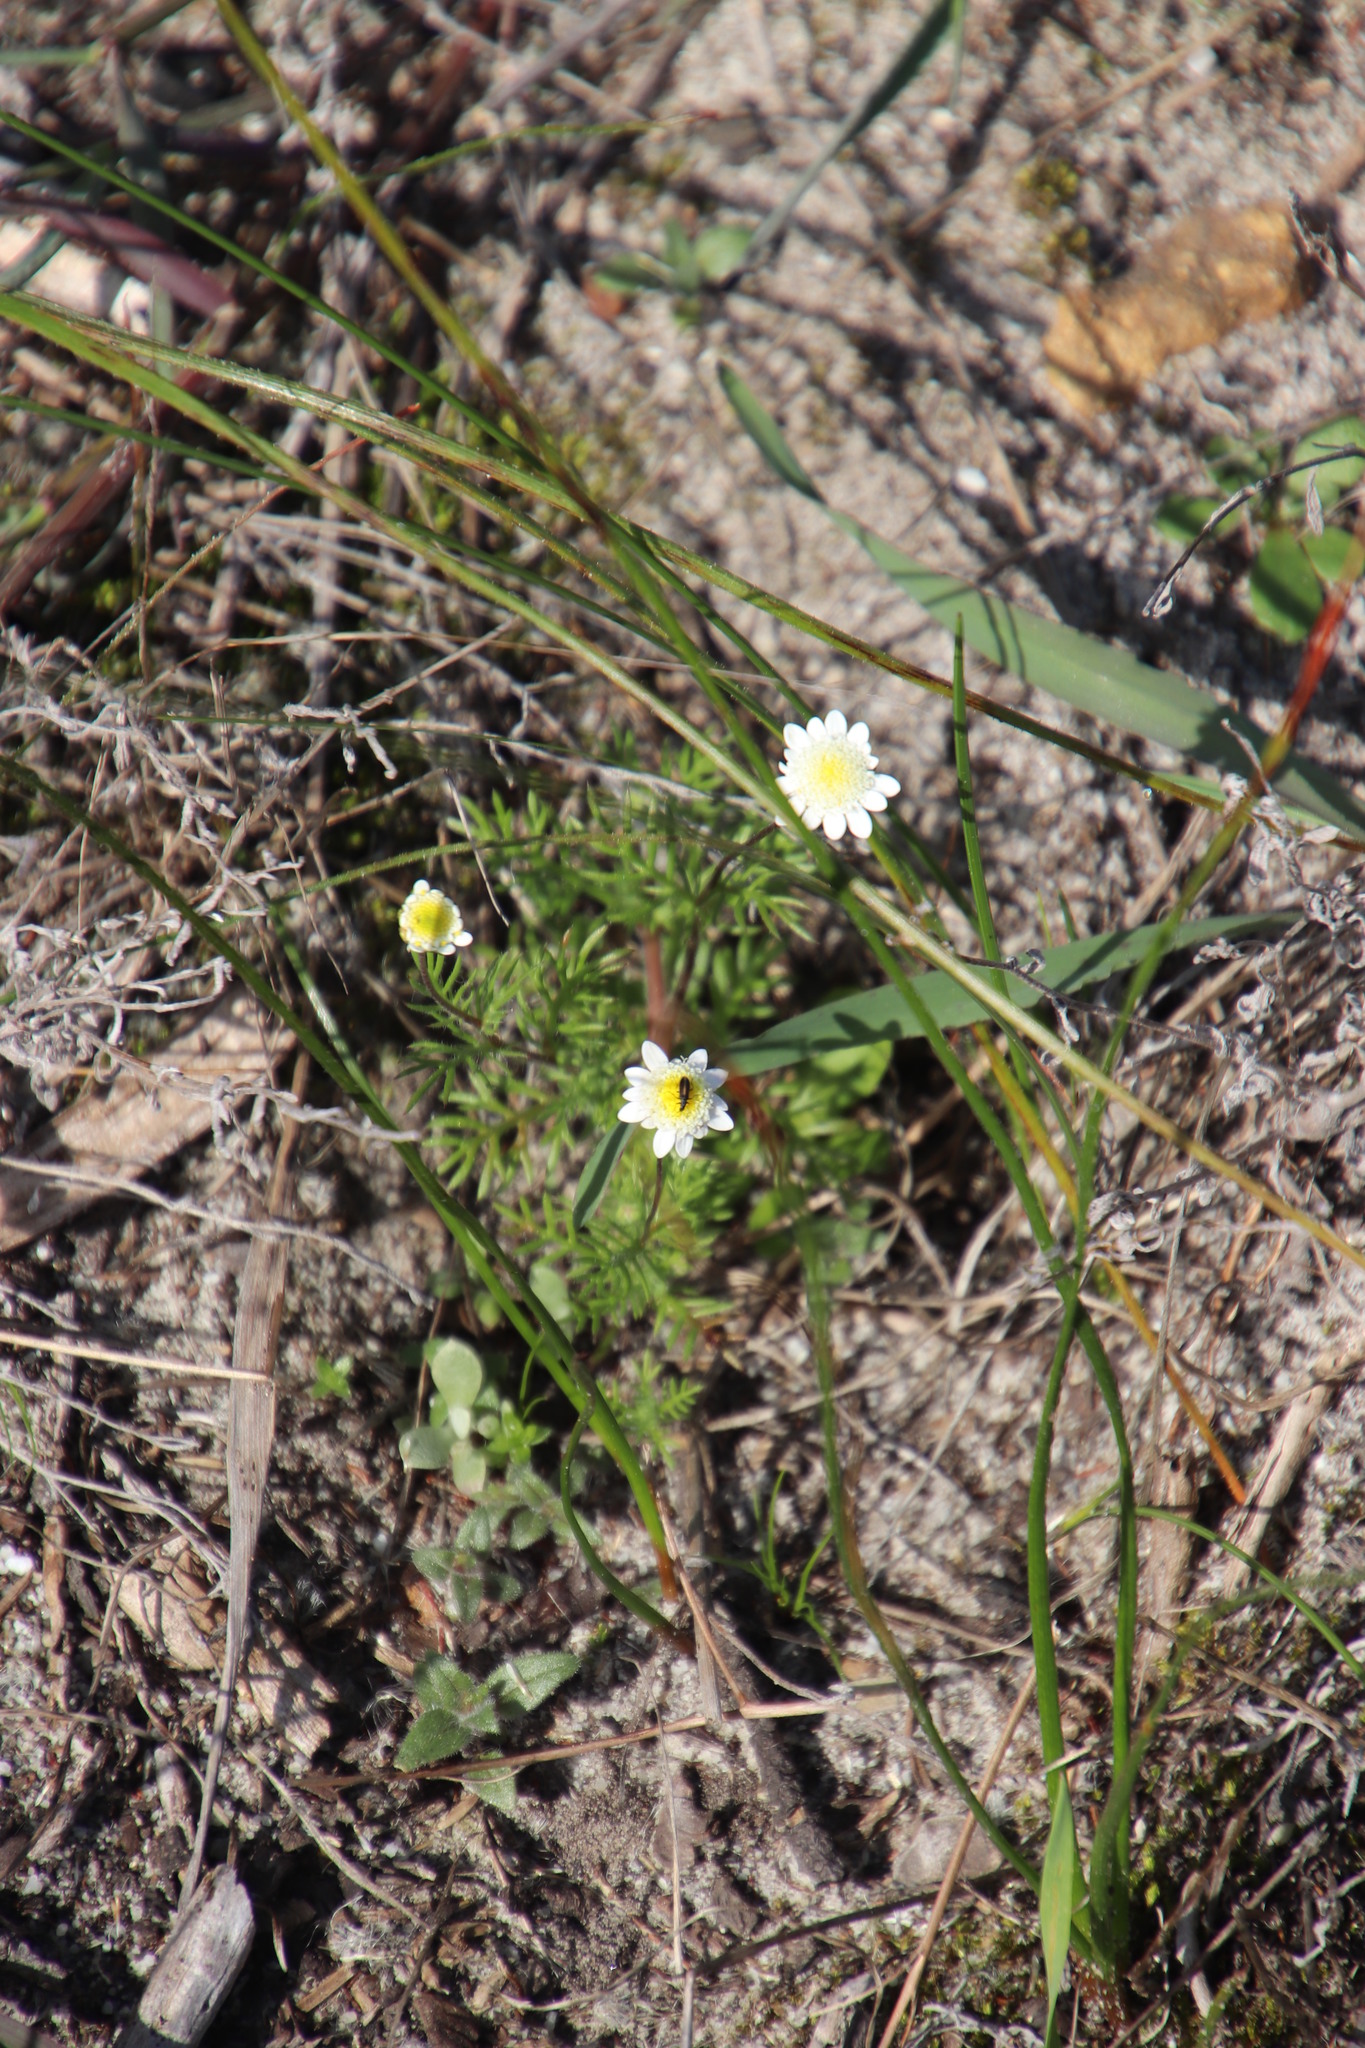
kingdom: Plantae
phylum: Tracheophyta
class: Magnoliopsida
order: Asterales
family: Asteraceae
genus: Cotula
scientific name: Cotula turbinata
